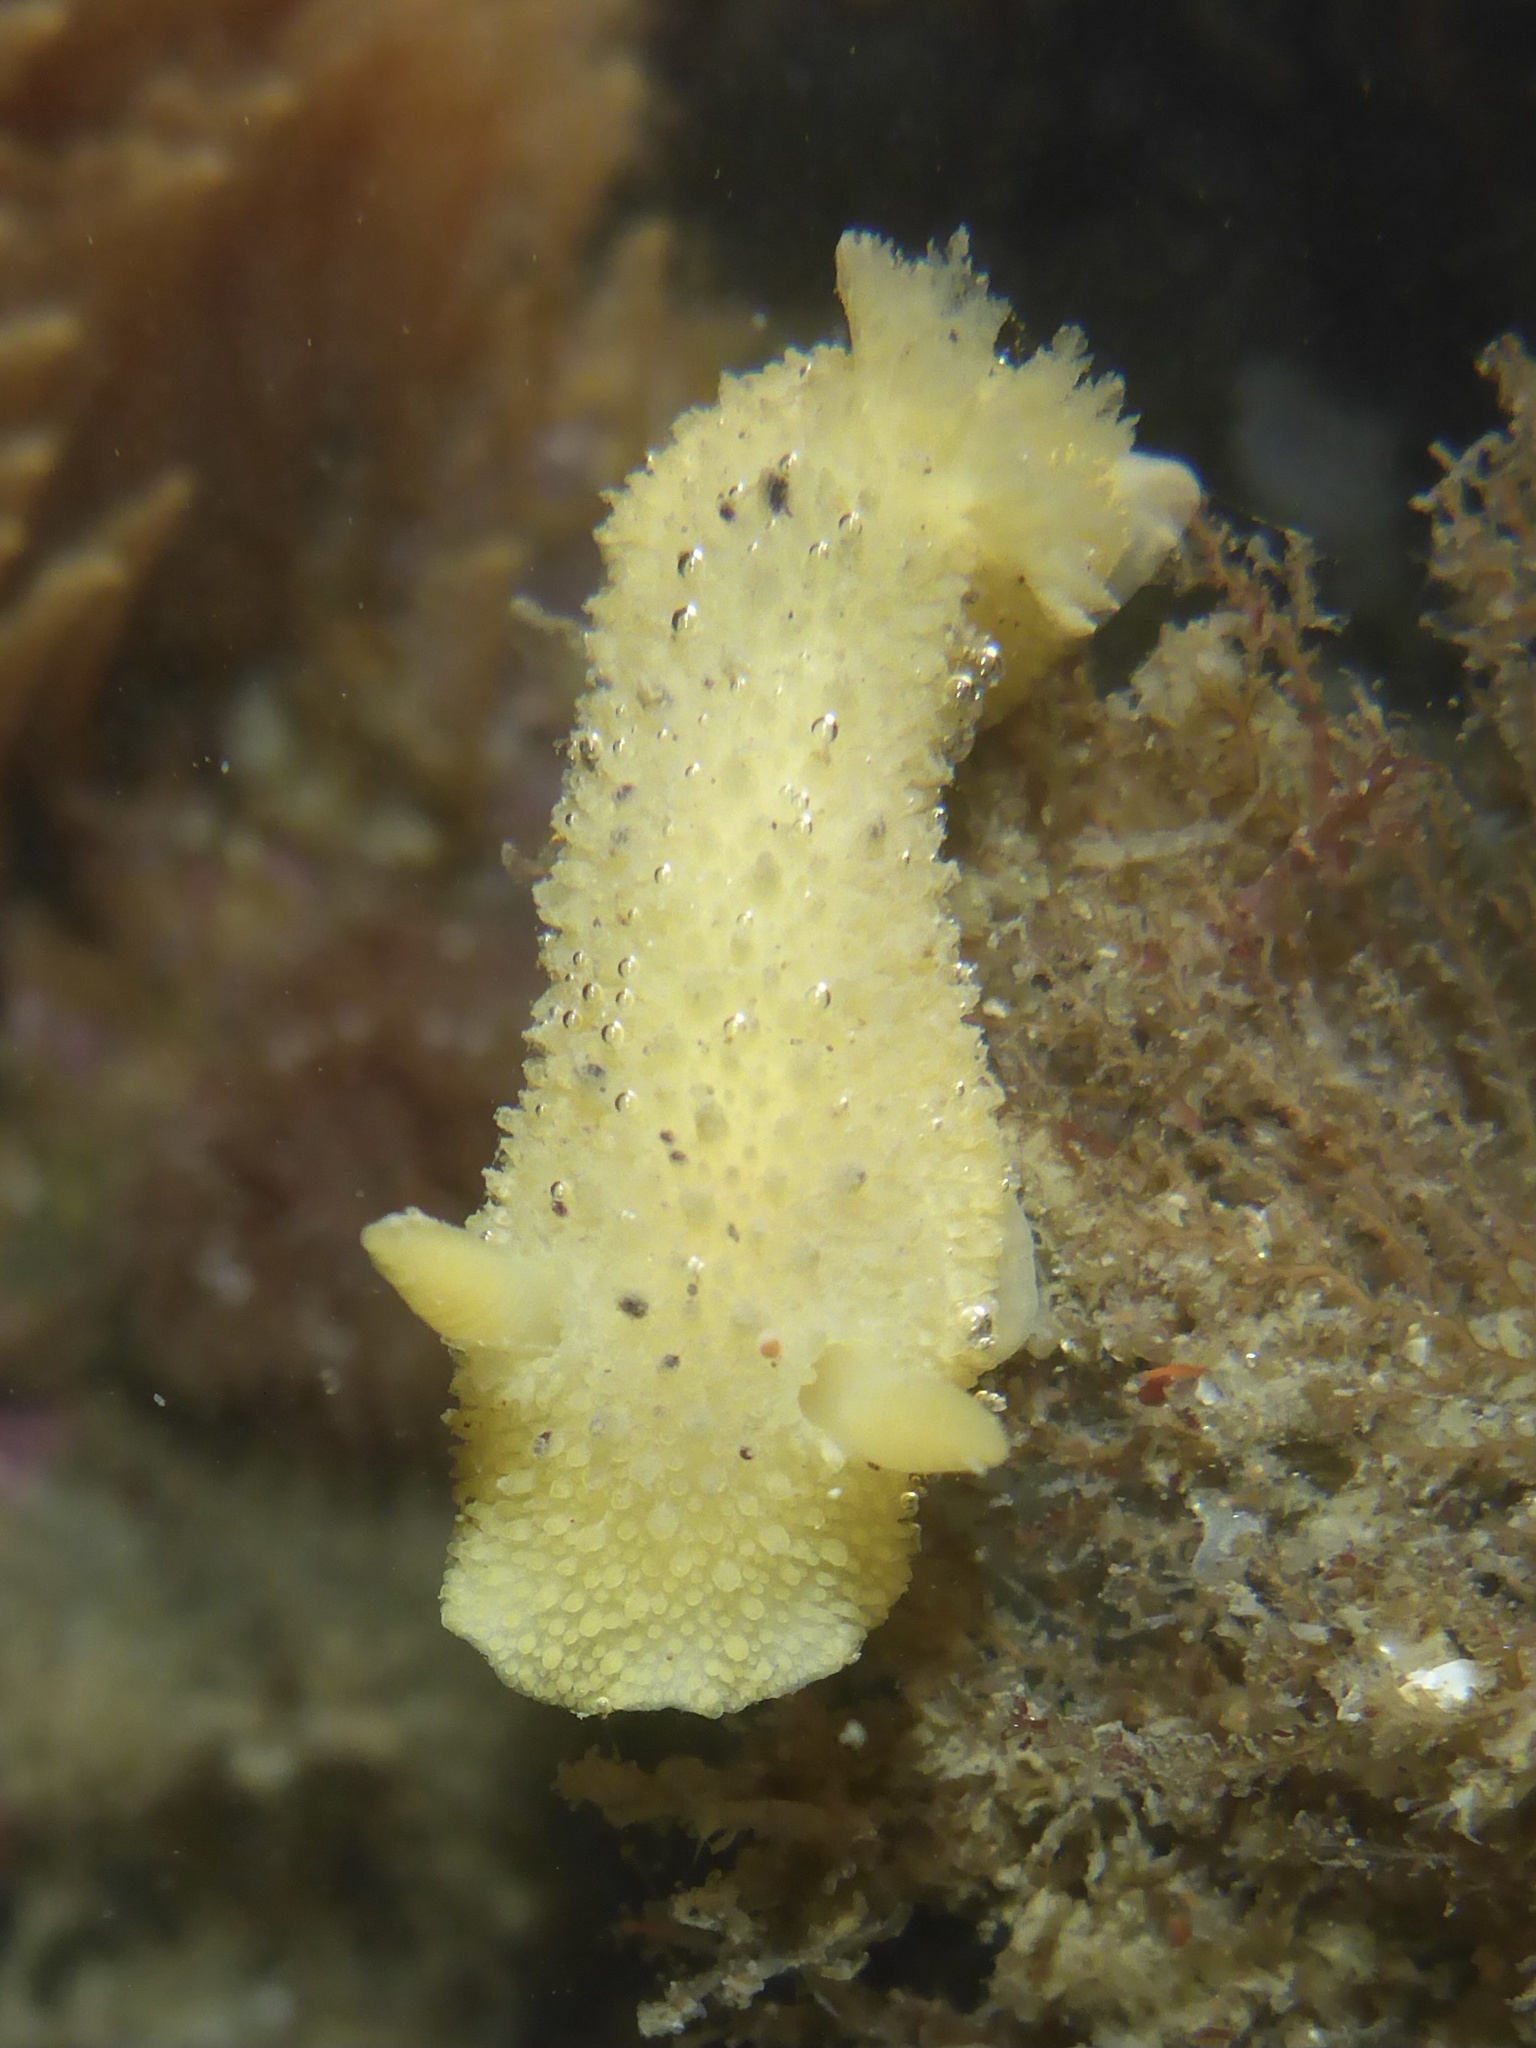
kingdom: Animalia
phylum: Mollusca
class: Gastropoda
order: Nudibranchia
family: Dorididae
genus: Doris
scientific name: Doris montereyensis
